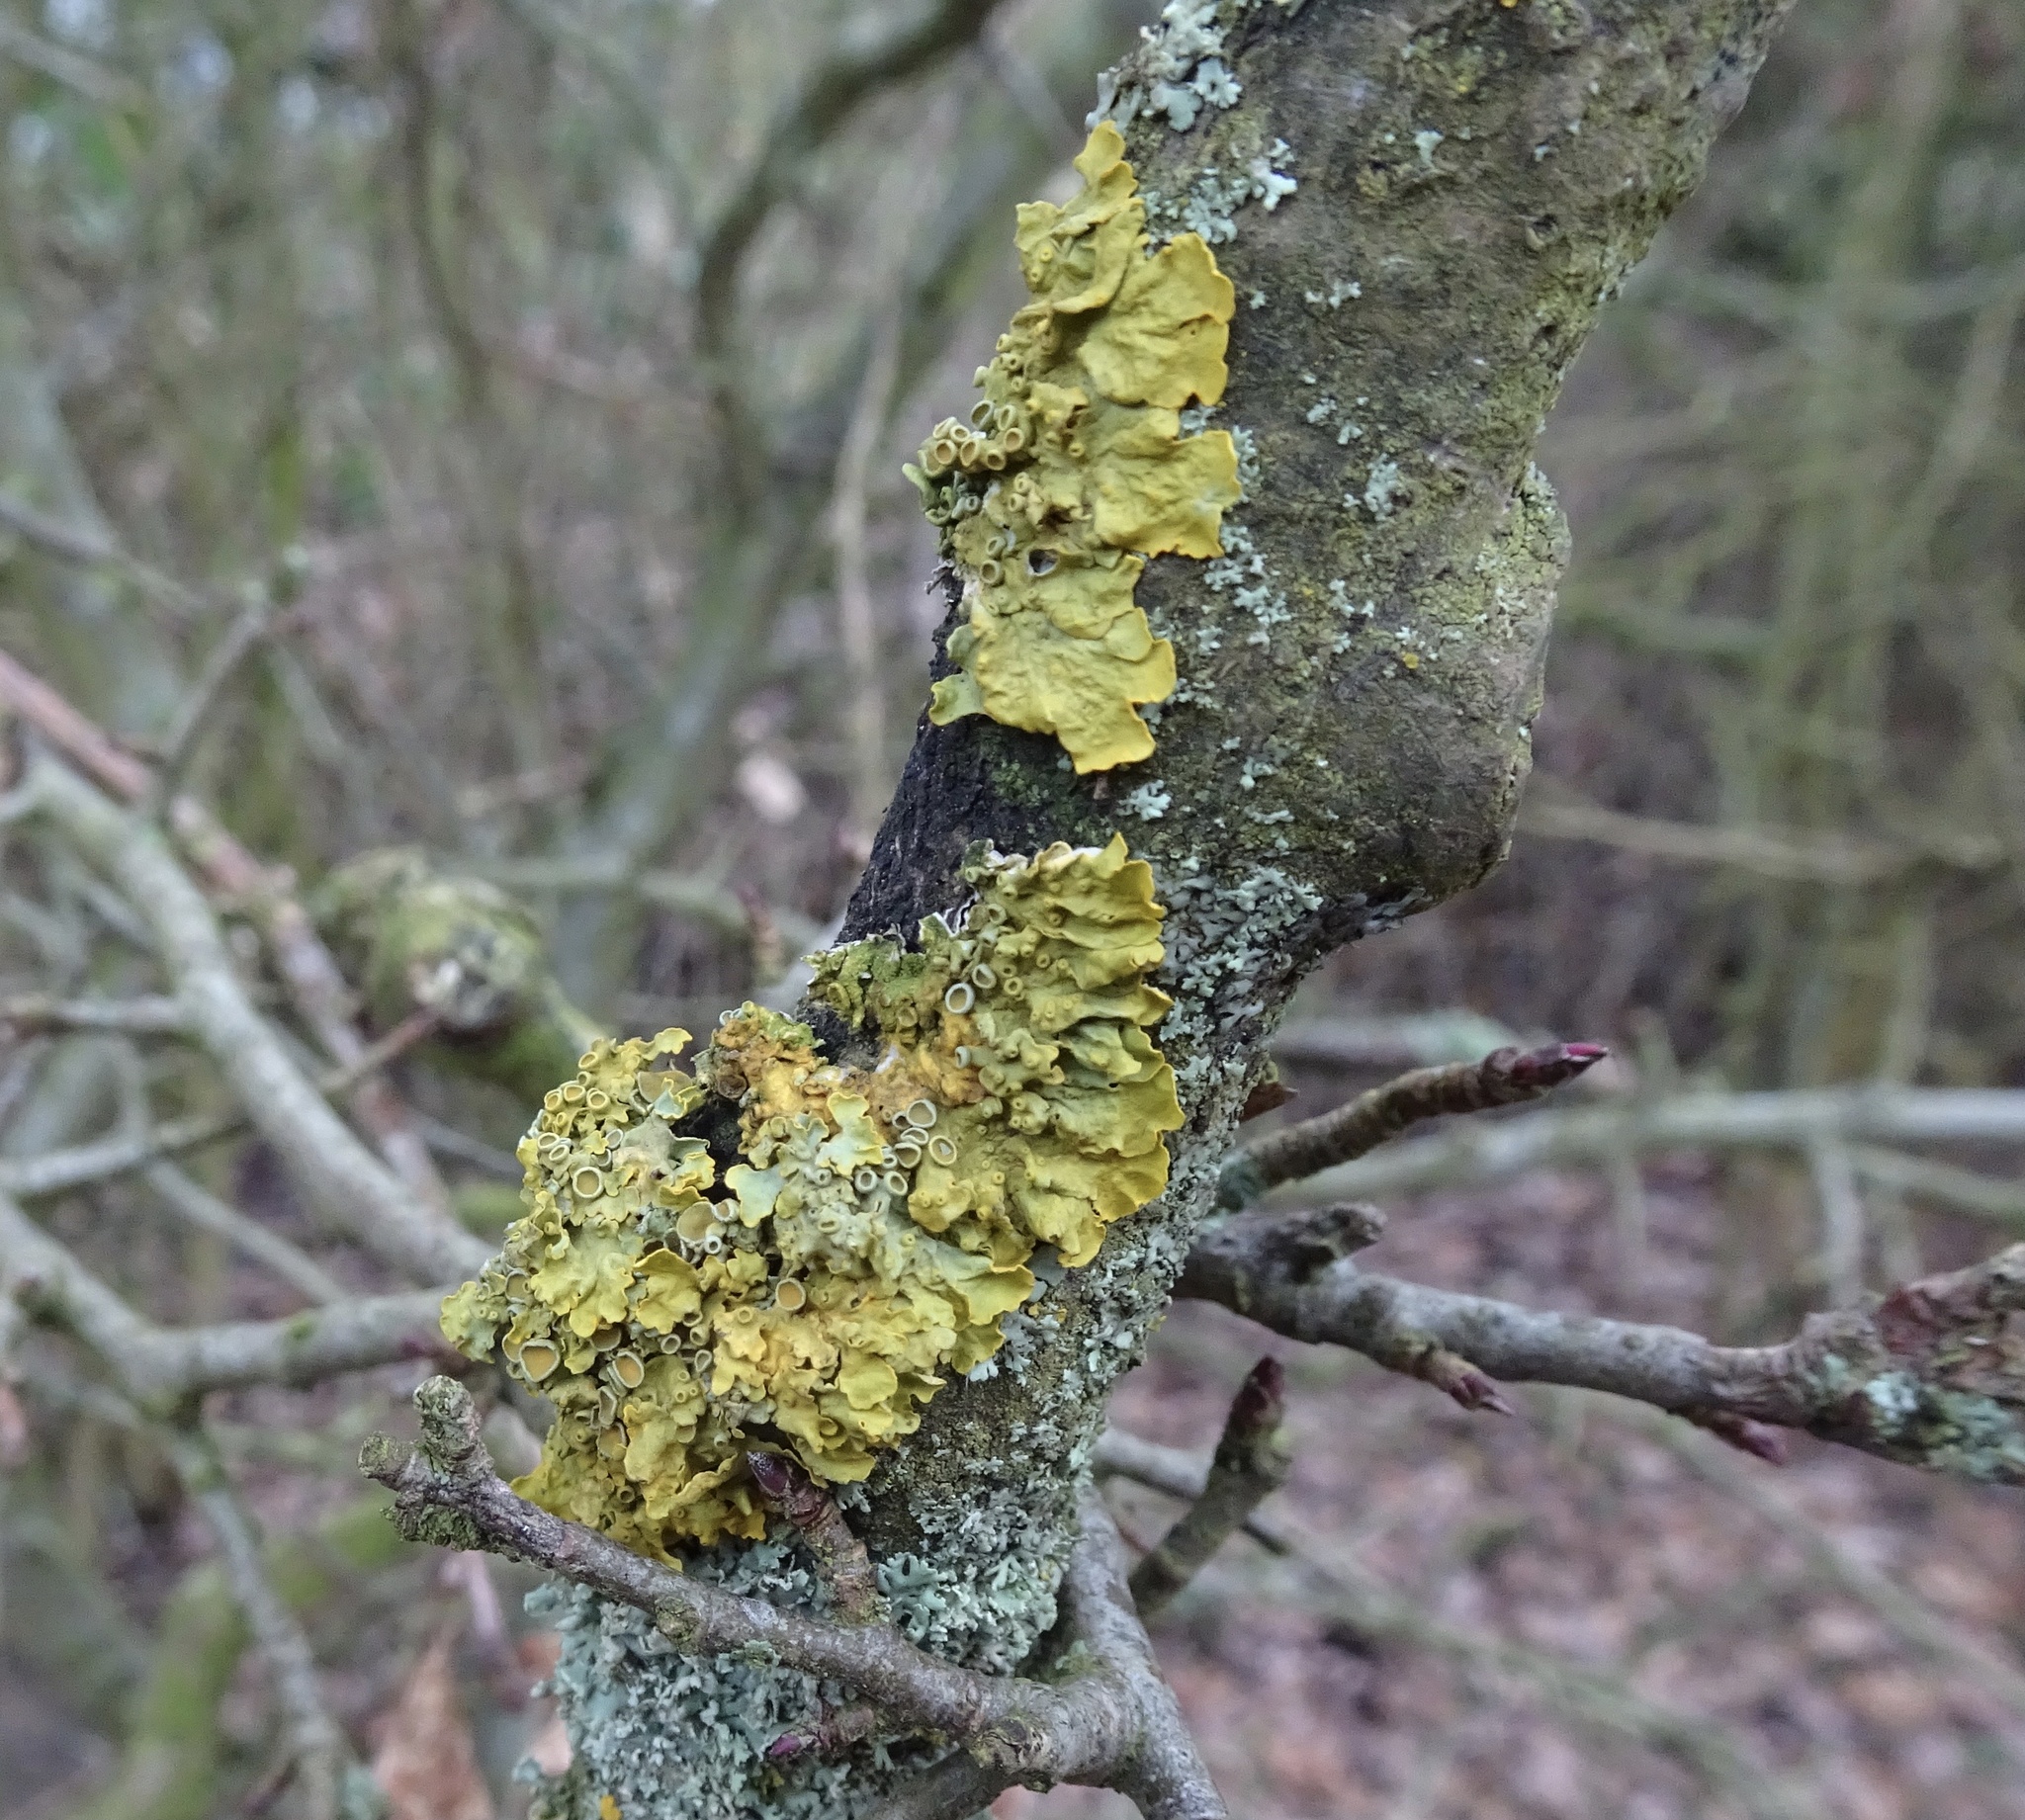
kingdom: Fungi
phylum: Ascomycota
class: Lecanoromycetes
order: Teloschistales
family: Teloschistaceae
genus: Xanthoria
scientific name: Xanthoria parietina
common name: Common orange lichen
